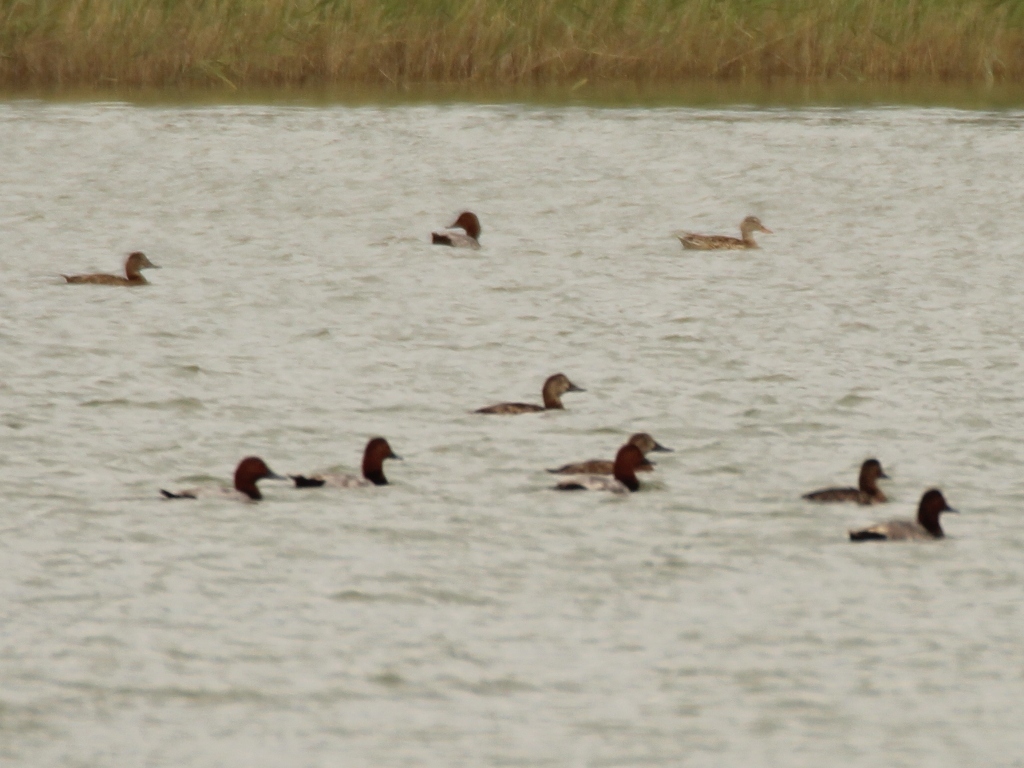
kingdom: Animalia
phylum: Chordata
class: Aves
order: Anseriformes
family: Anatidae
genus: Aythya
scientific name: Aythya ferina
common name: Common pochard
